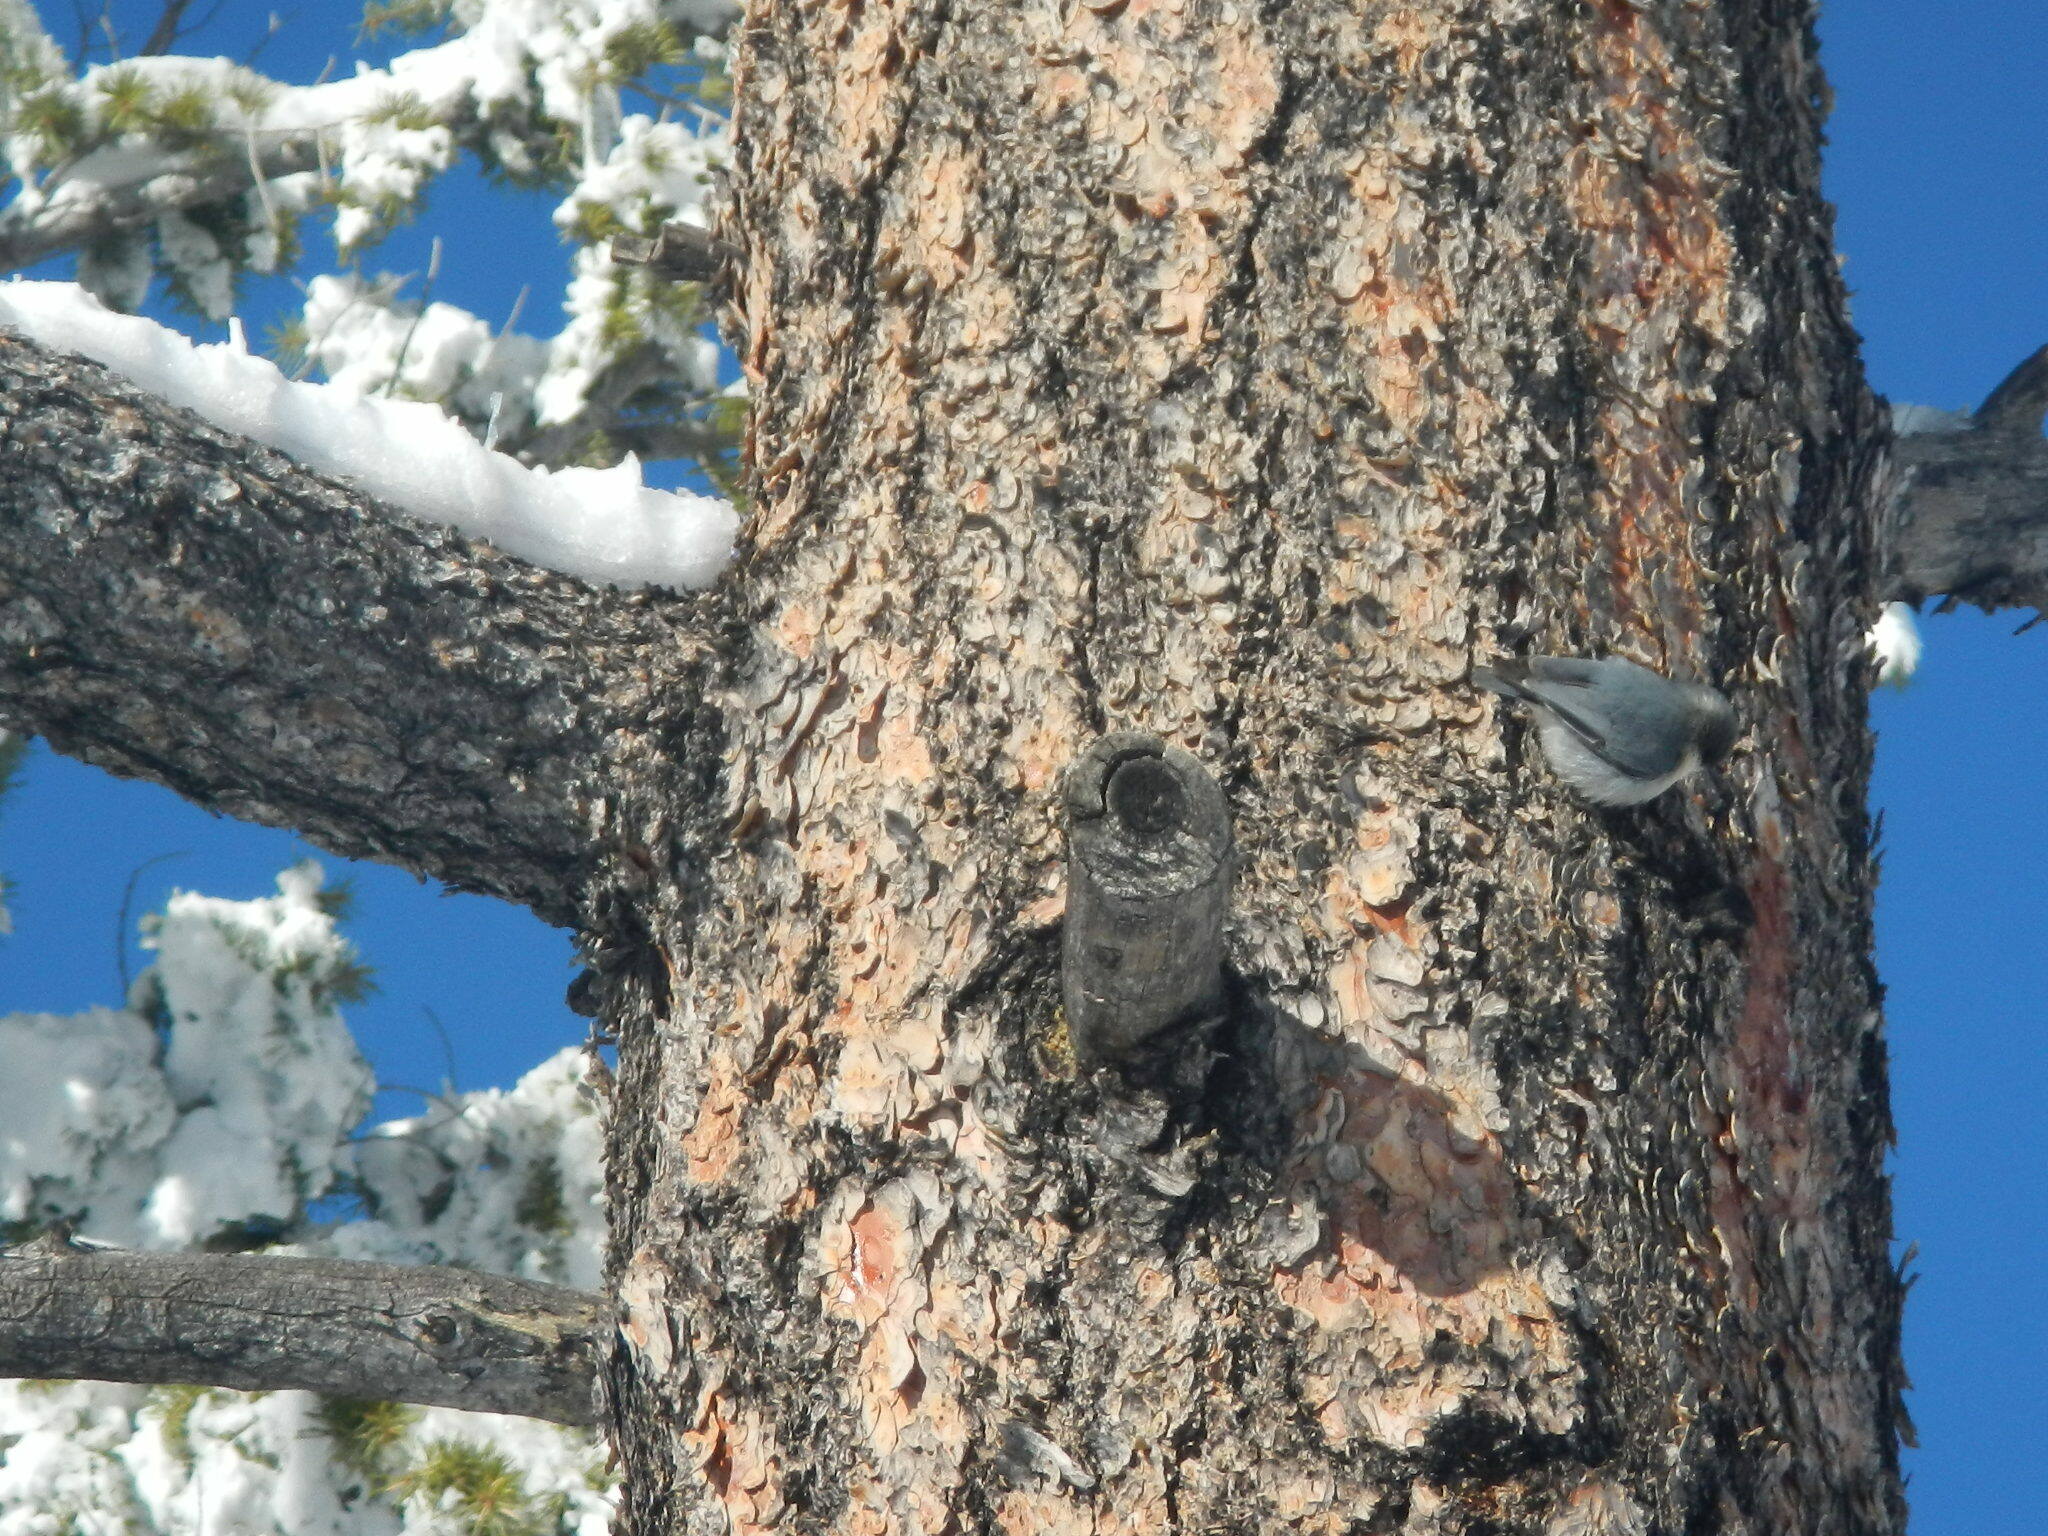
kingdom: Animalia
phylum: Chordata
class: Aves
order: Passeriformes
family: Sittidae
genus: Sitta
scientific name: Sitta pygmaea
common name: Pygmy nuthatch
